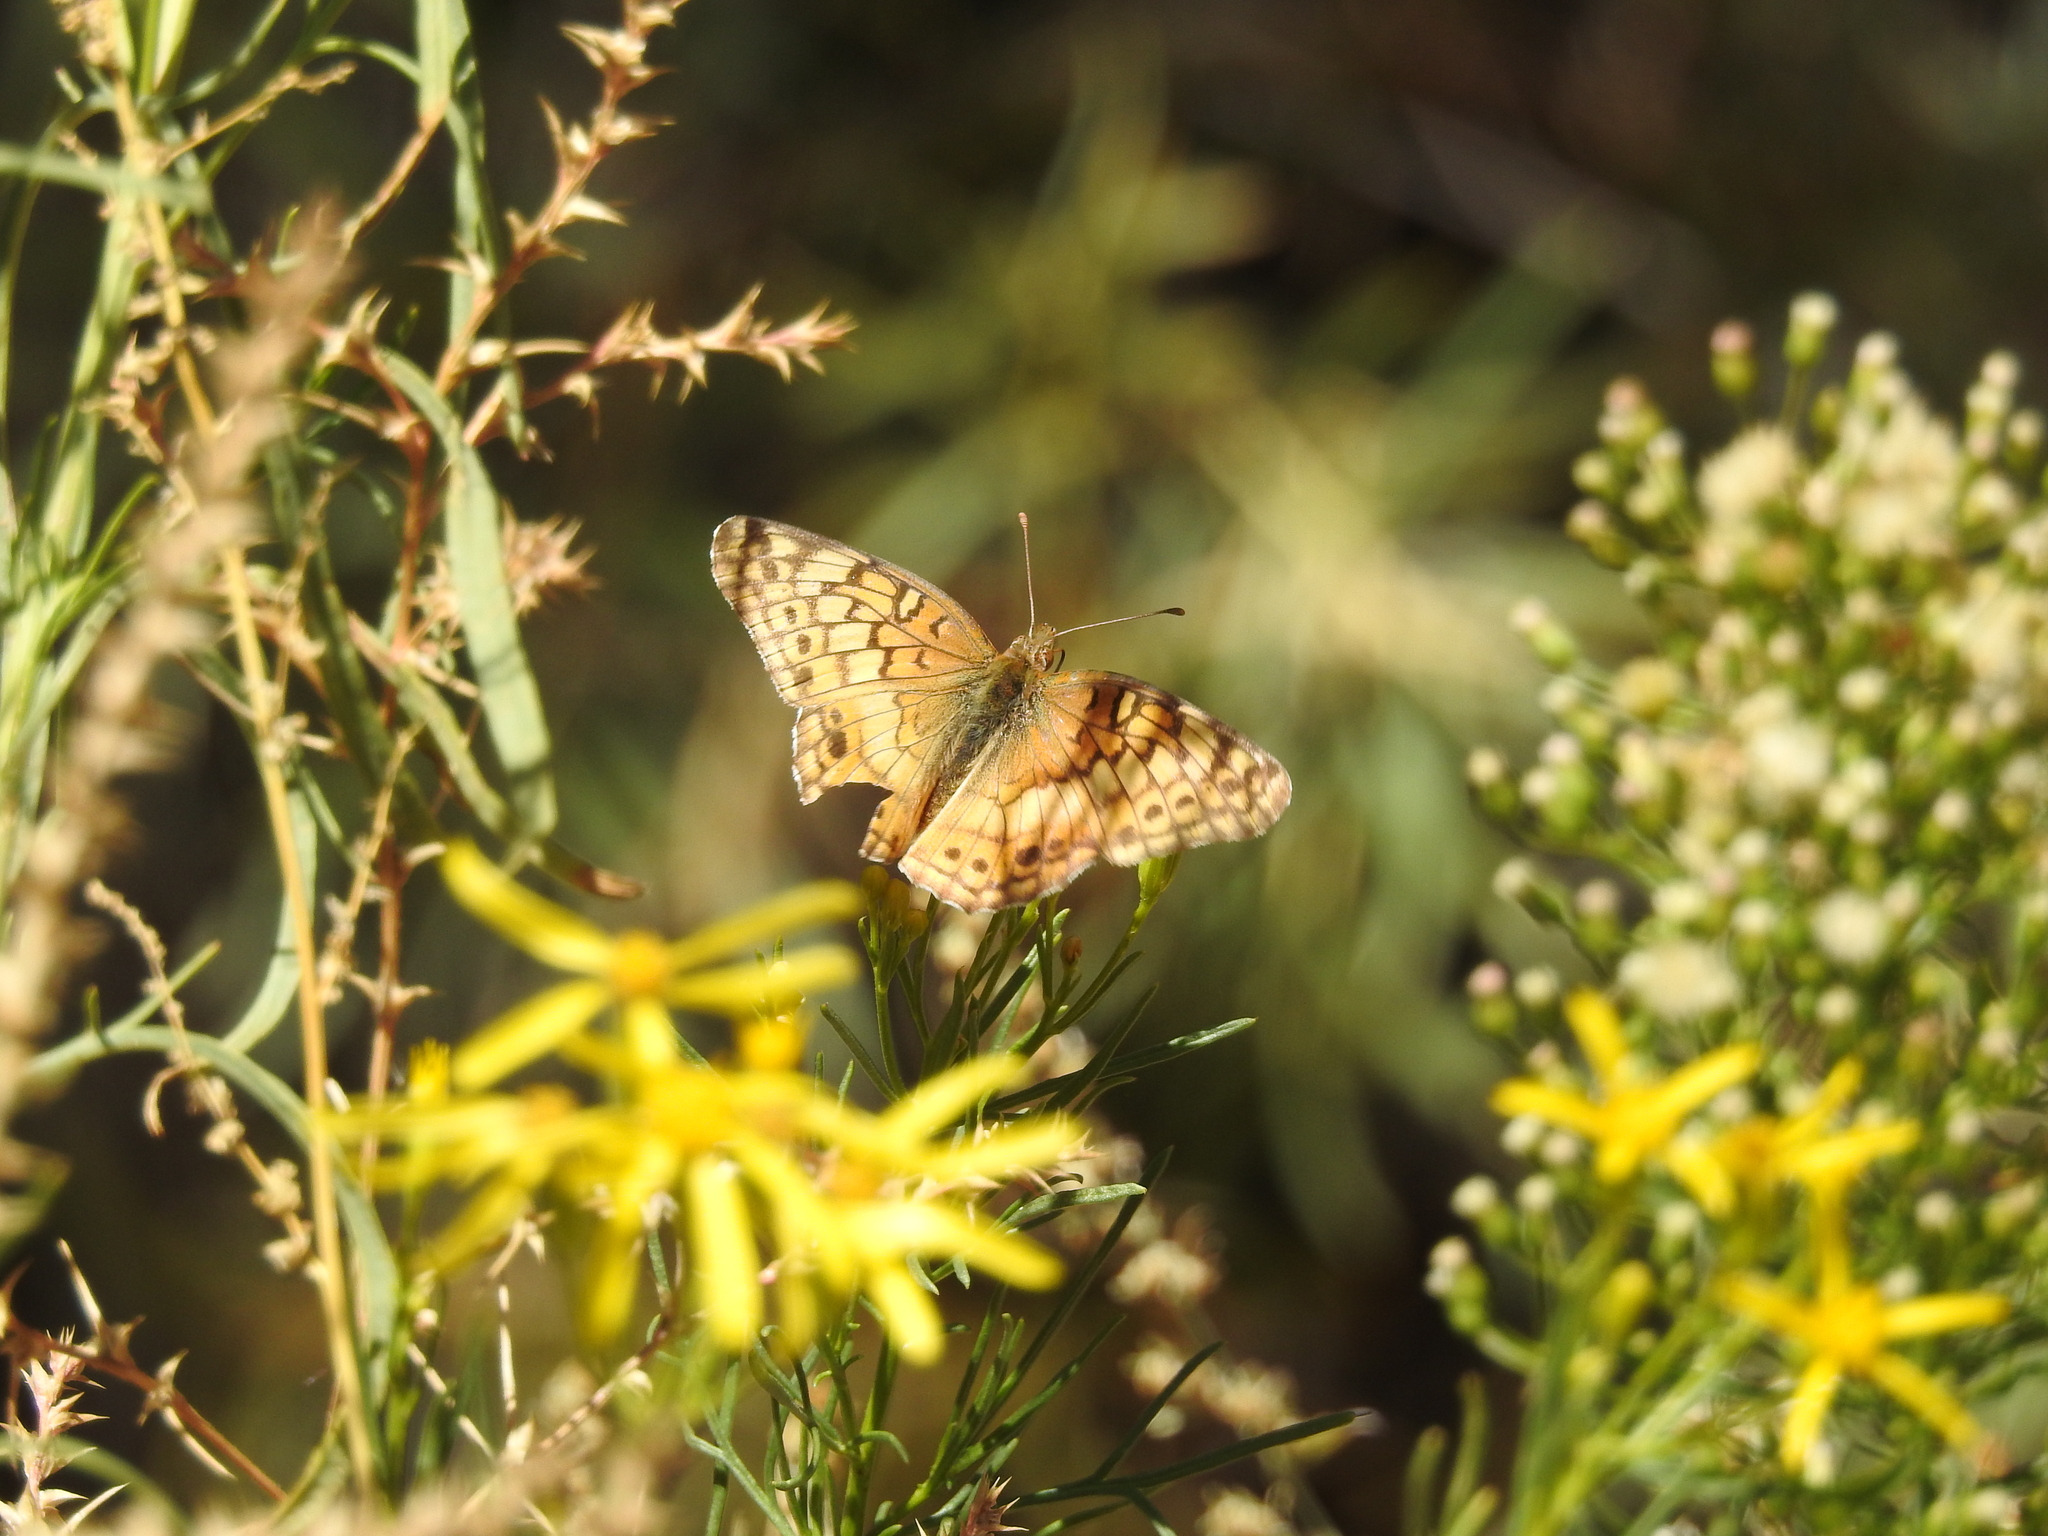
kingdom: Animalia
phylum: Arthropoda
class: Insecta
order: Lepidoptera
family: Nymphalidae
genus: Euptoieta
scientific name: Euptoieta claudia
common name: Variegated fritillary
